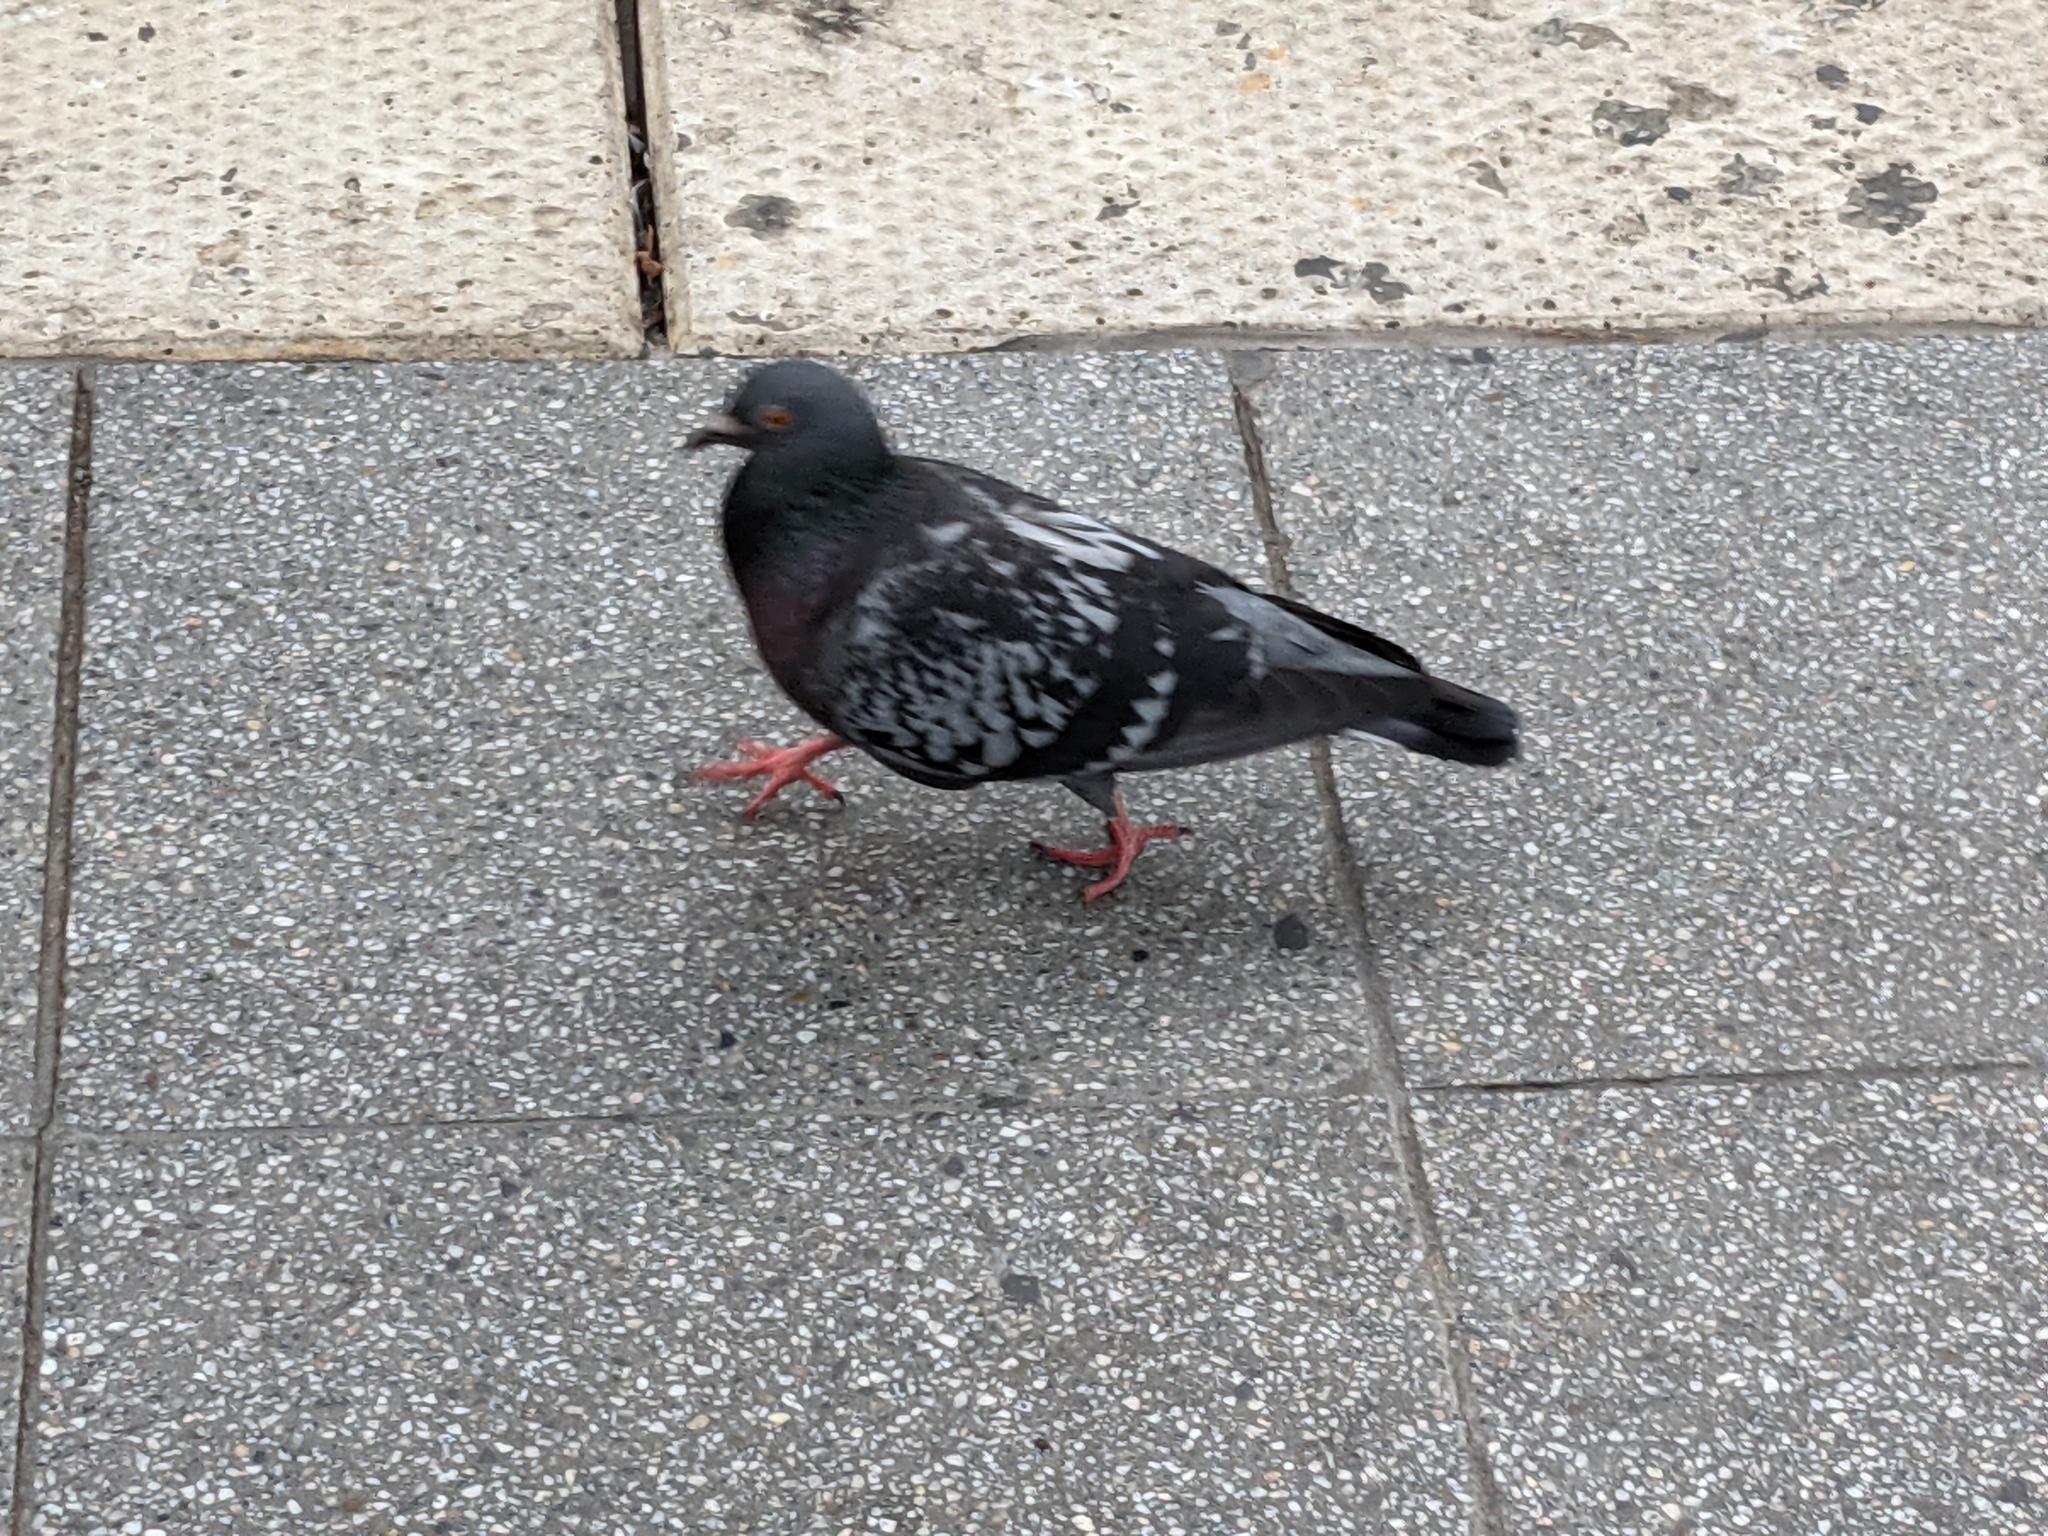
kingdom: Animalia
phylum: Chordata
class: Aves
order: Columbiformes
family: Columbidae
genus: Columba
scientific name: Columba livia
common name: Rock pigeon
